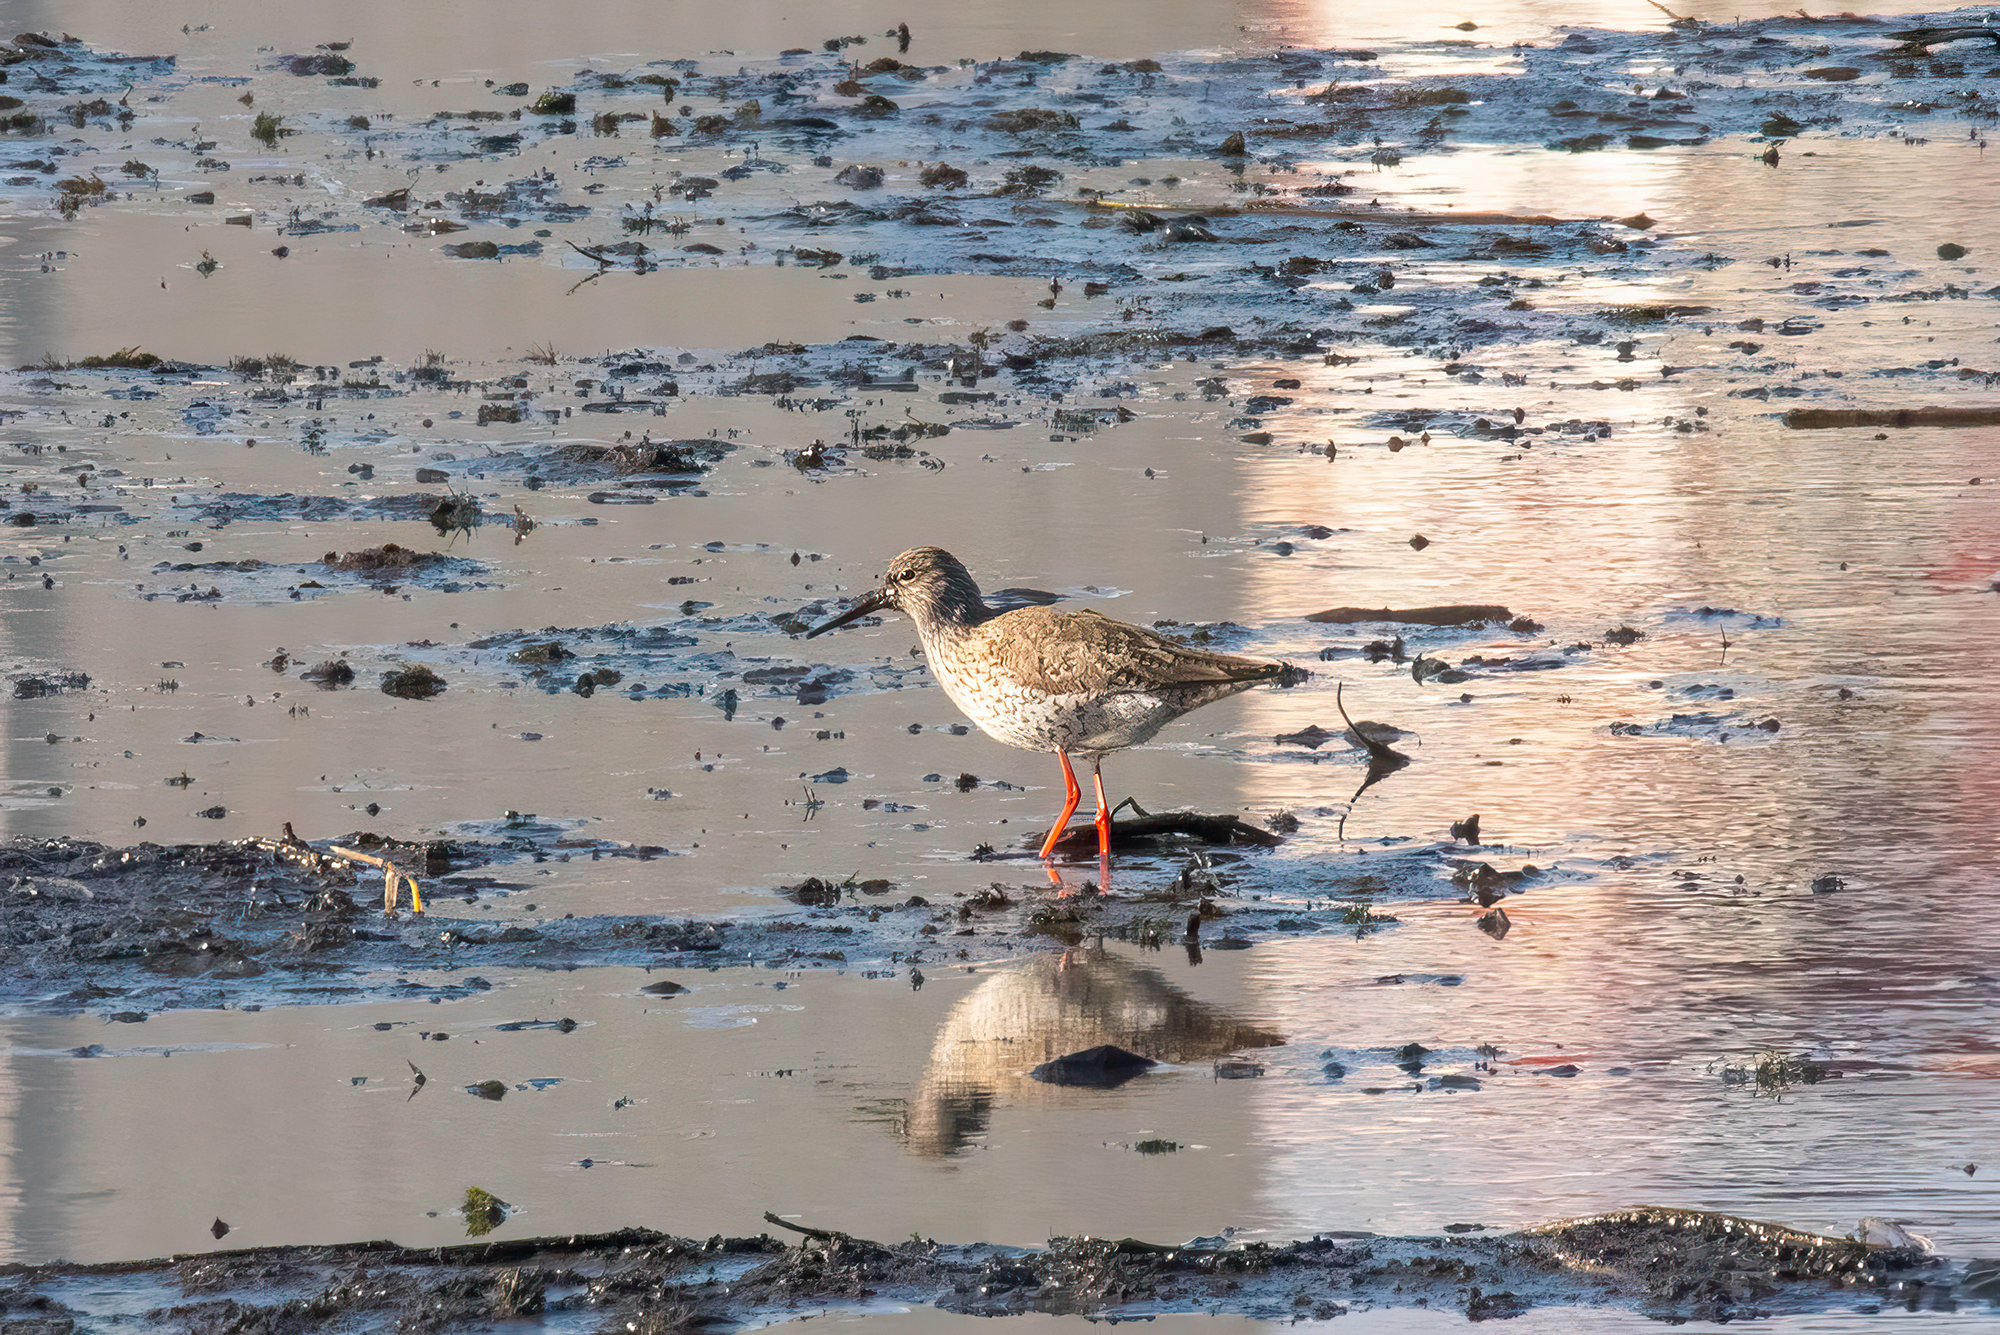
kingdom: Animalia
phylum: Chordata
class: Aves
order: Charadriiformes
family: Scolopacidae
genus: Tringa
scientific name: Tringa totanus
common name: Common redshank
